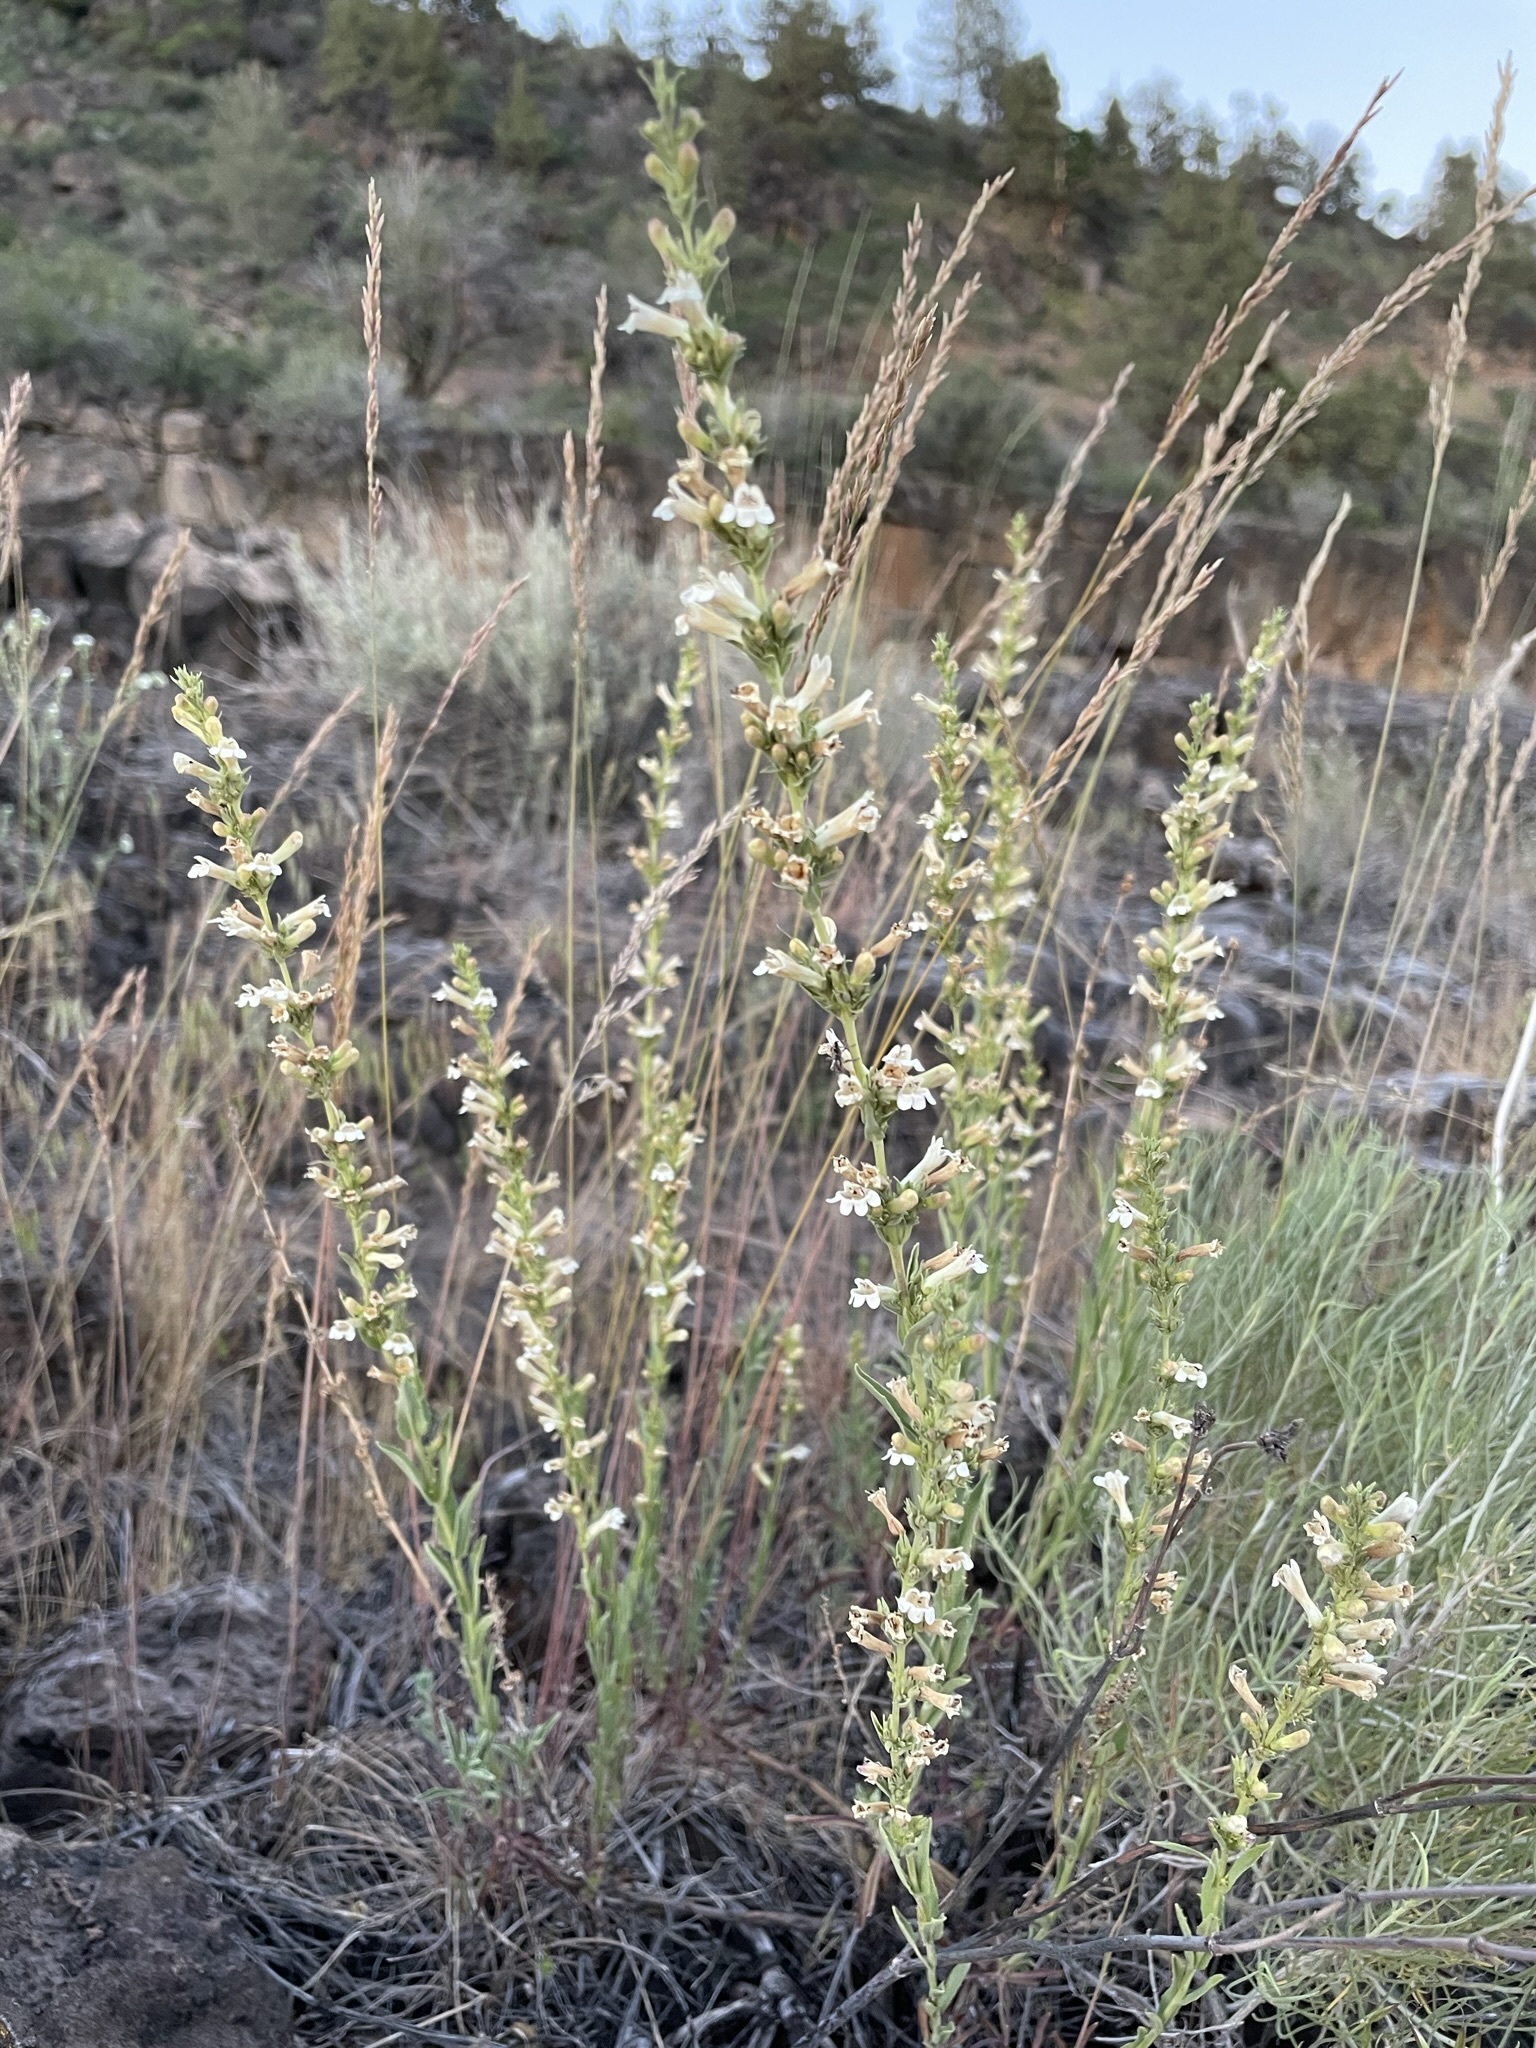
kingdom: Plantae
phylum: Tracheophyta
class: Magnoliopsida
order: Lamiales
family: Plantaginaceae
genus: Penstemon
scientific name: Penstemon deustus
